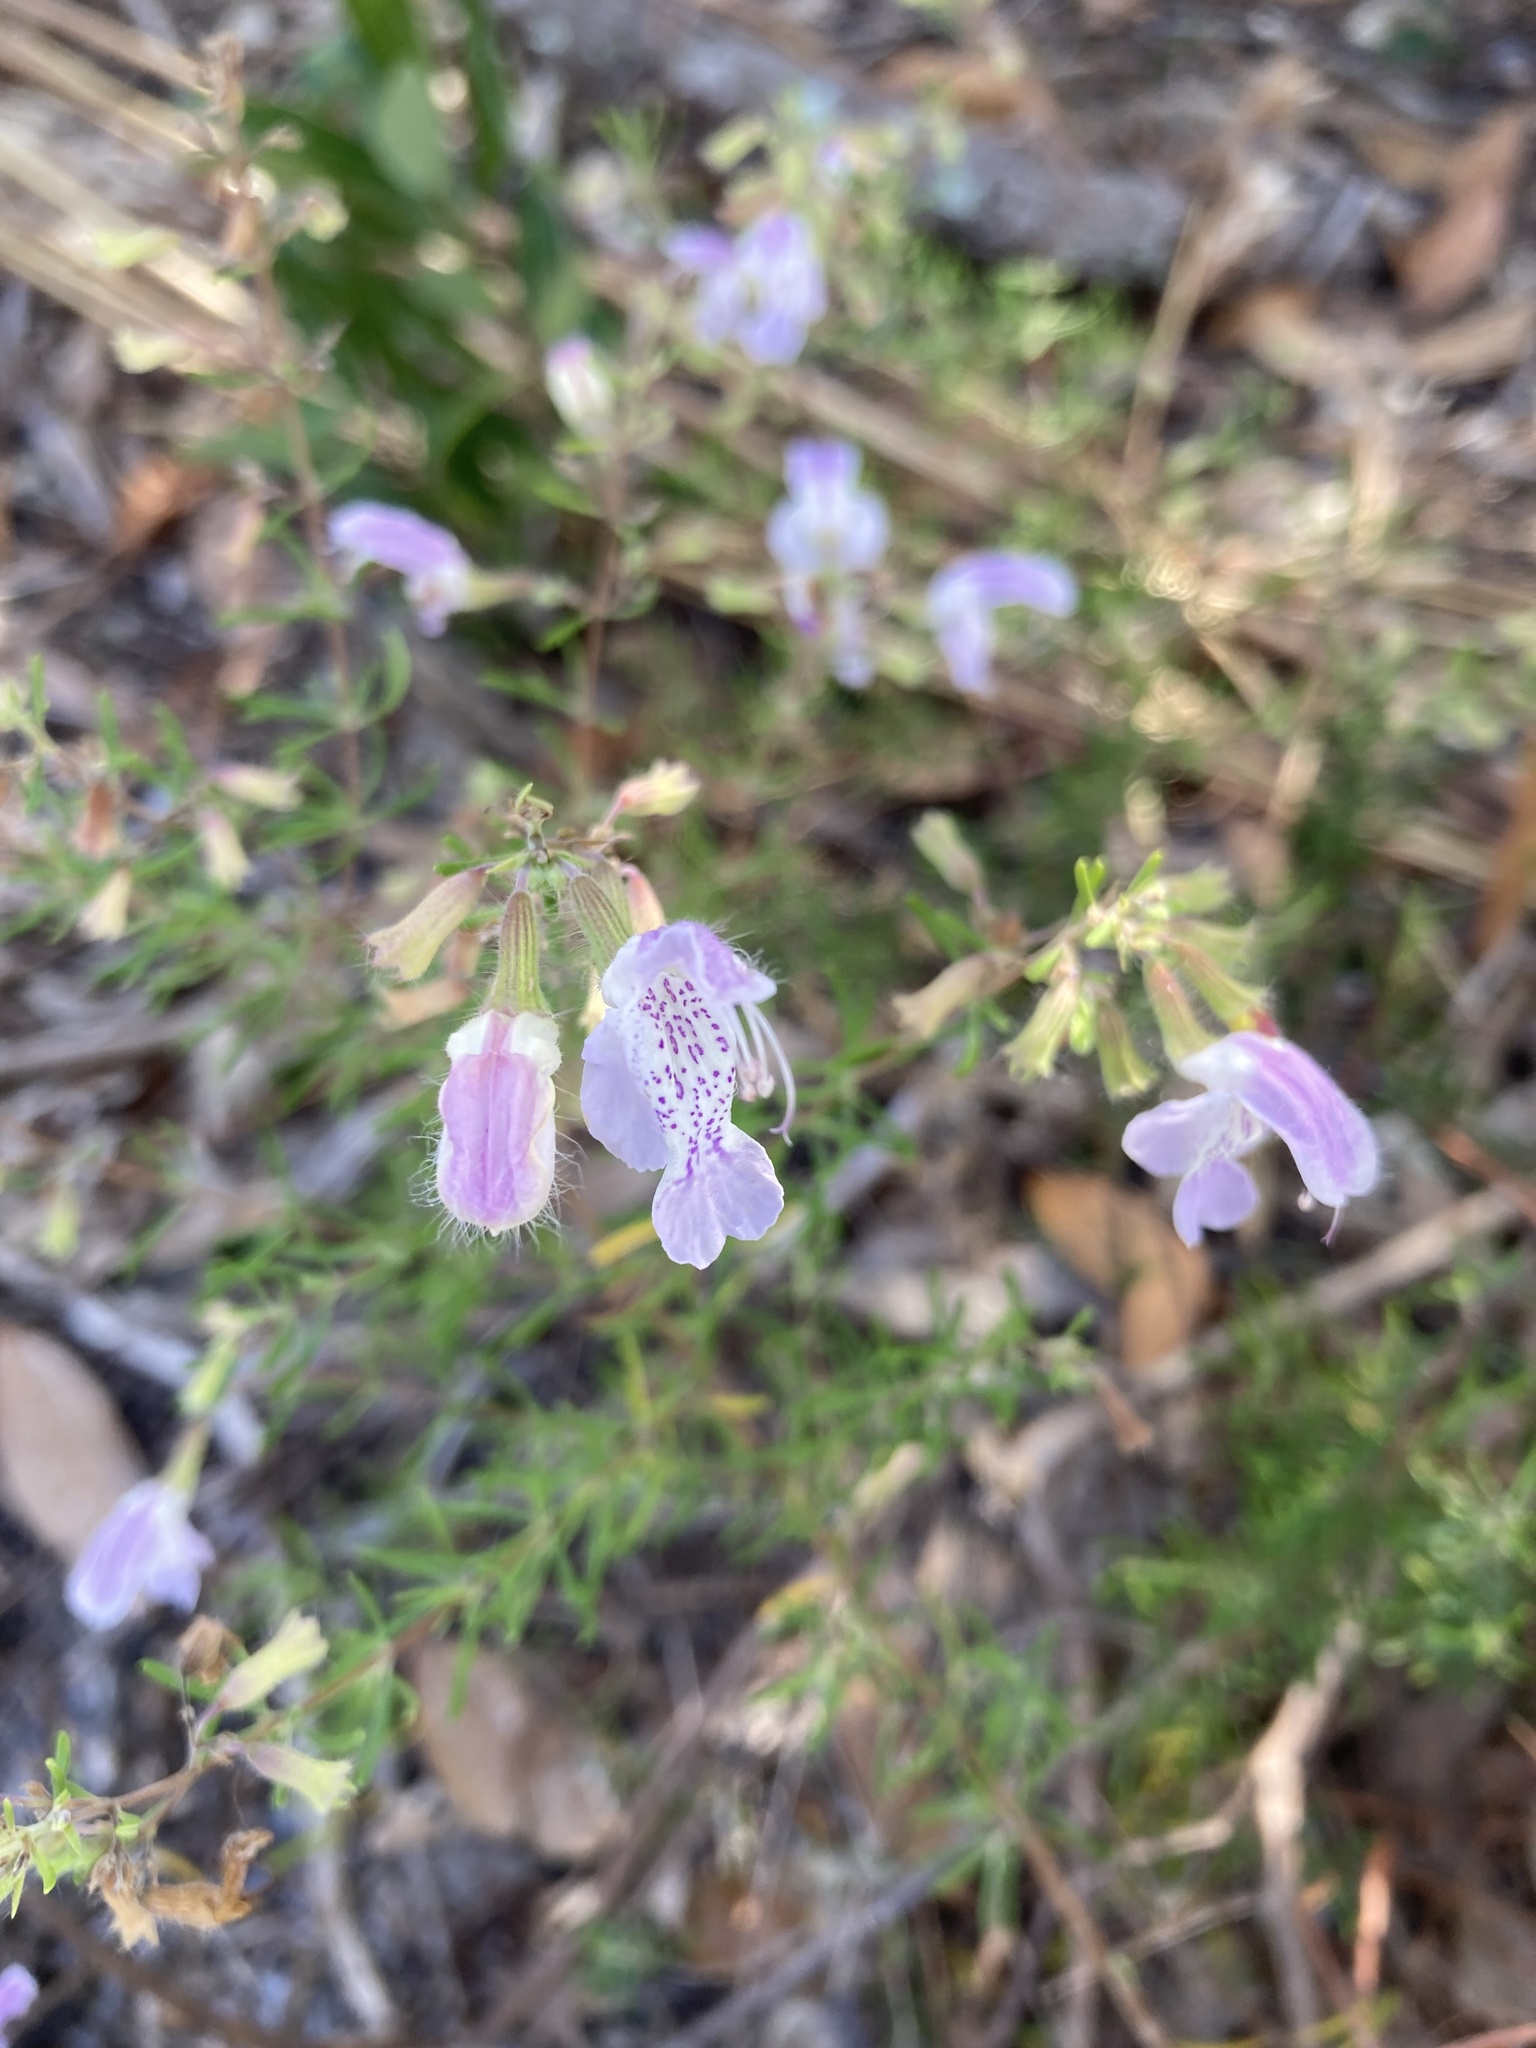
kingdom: Plantae
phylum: Tracheophyta
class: Magnoliopsida
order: Lamiales
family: Lamiaceae
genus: Conradina
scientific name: Conradina grandiflora
